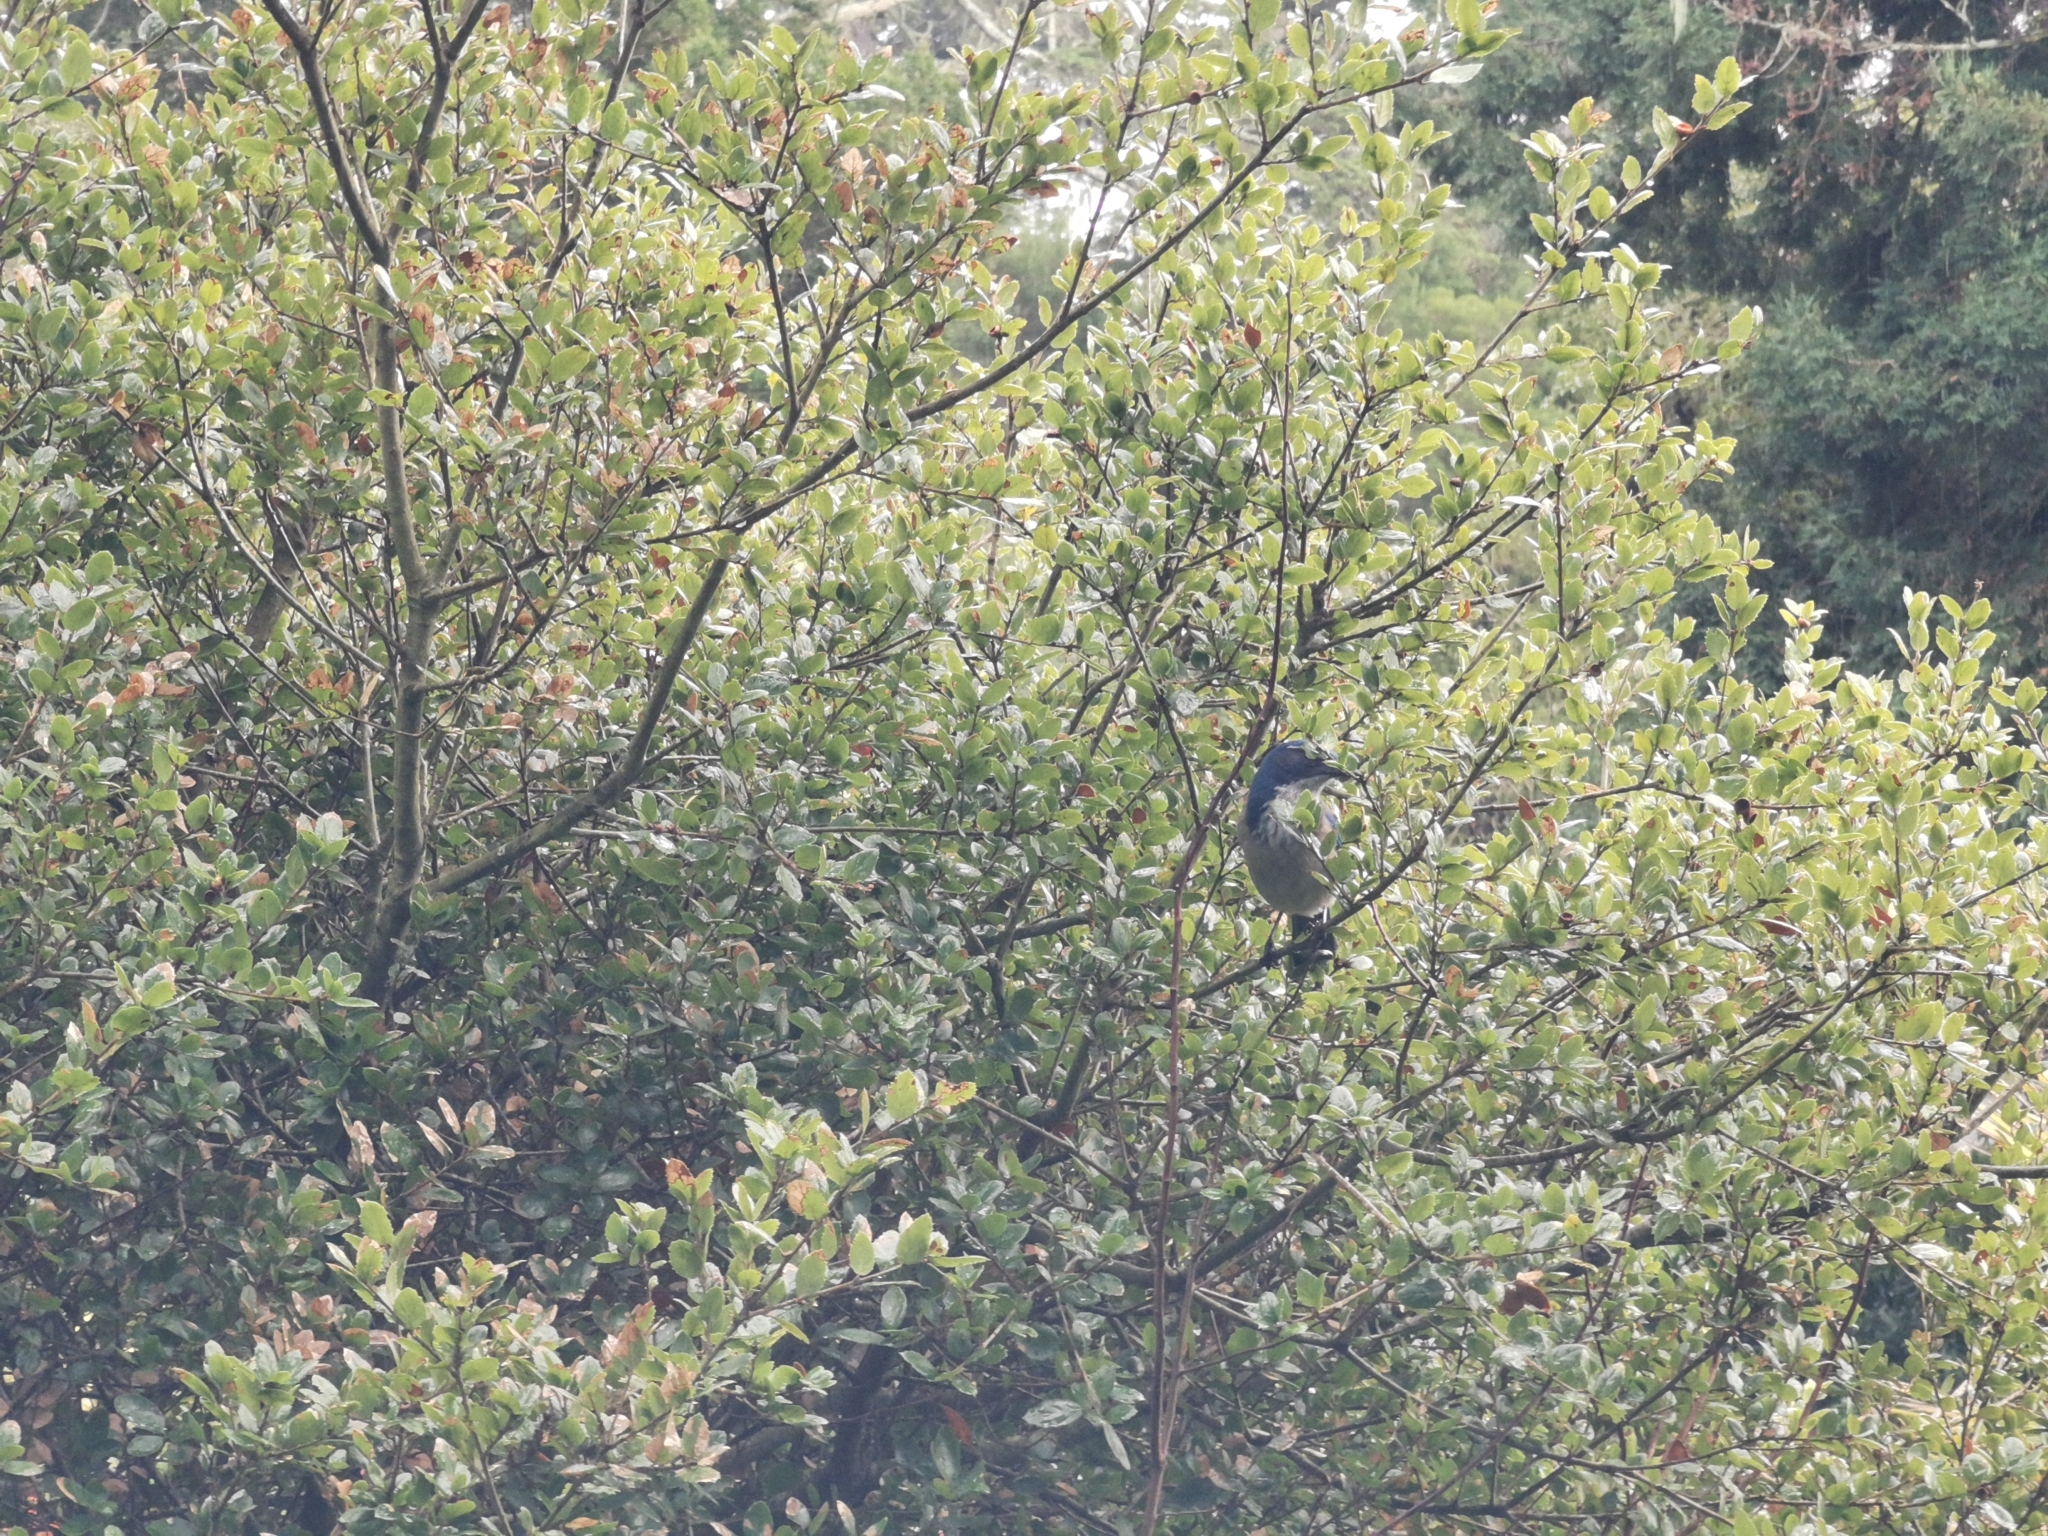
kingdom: Animalia
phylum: Chordata
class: Aves
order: Passeriformes
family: Corvidae
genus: Aphelocoma
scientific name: Aphelocoma californica
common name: California scrub-jay
